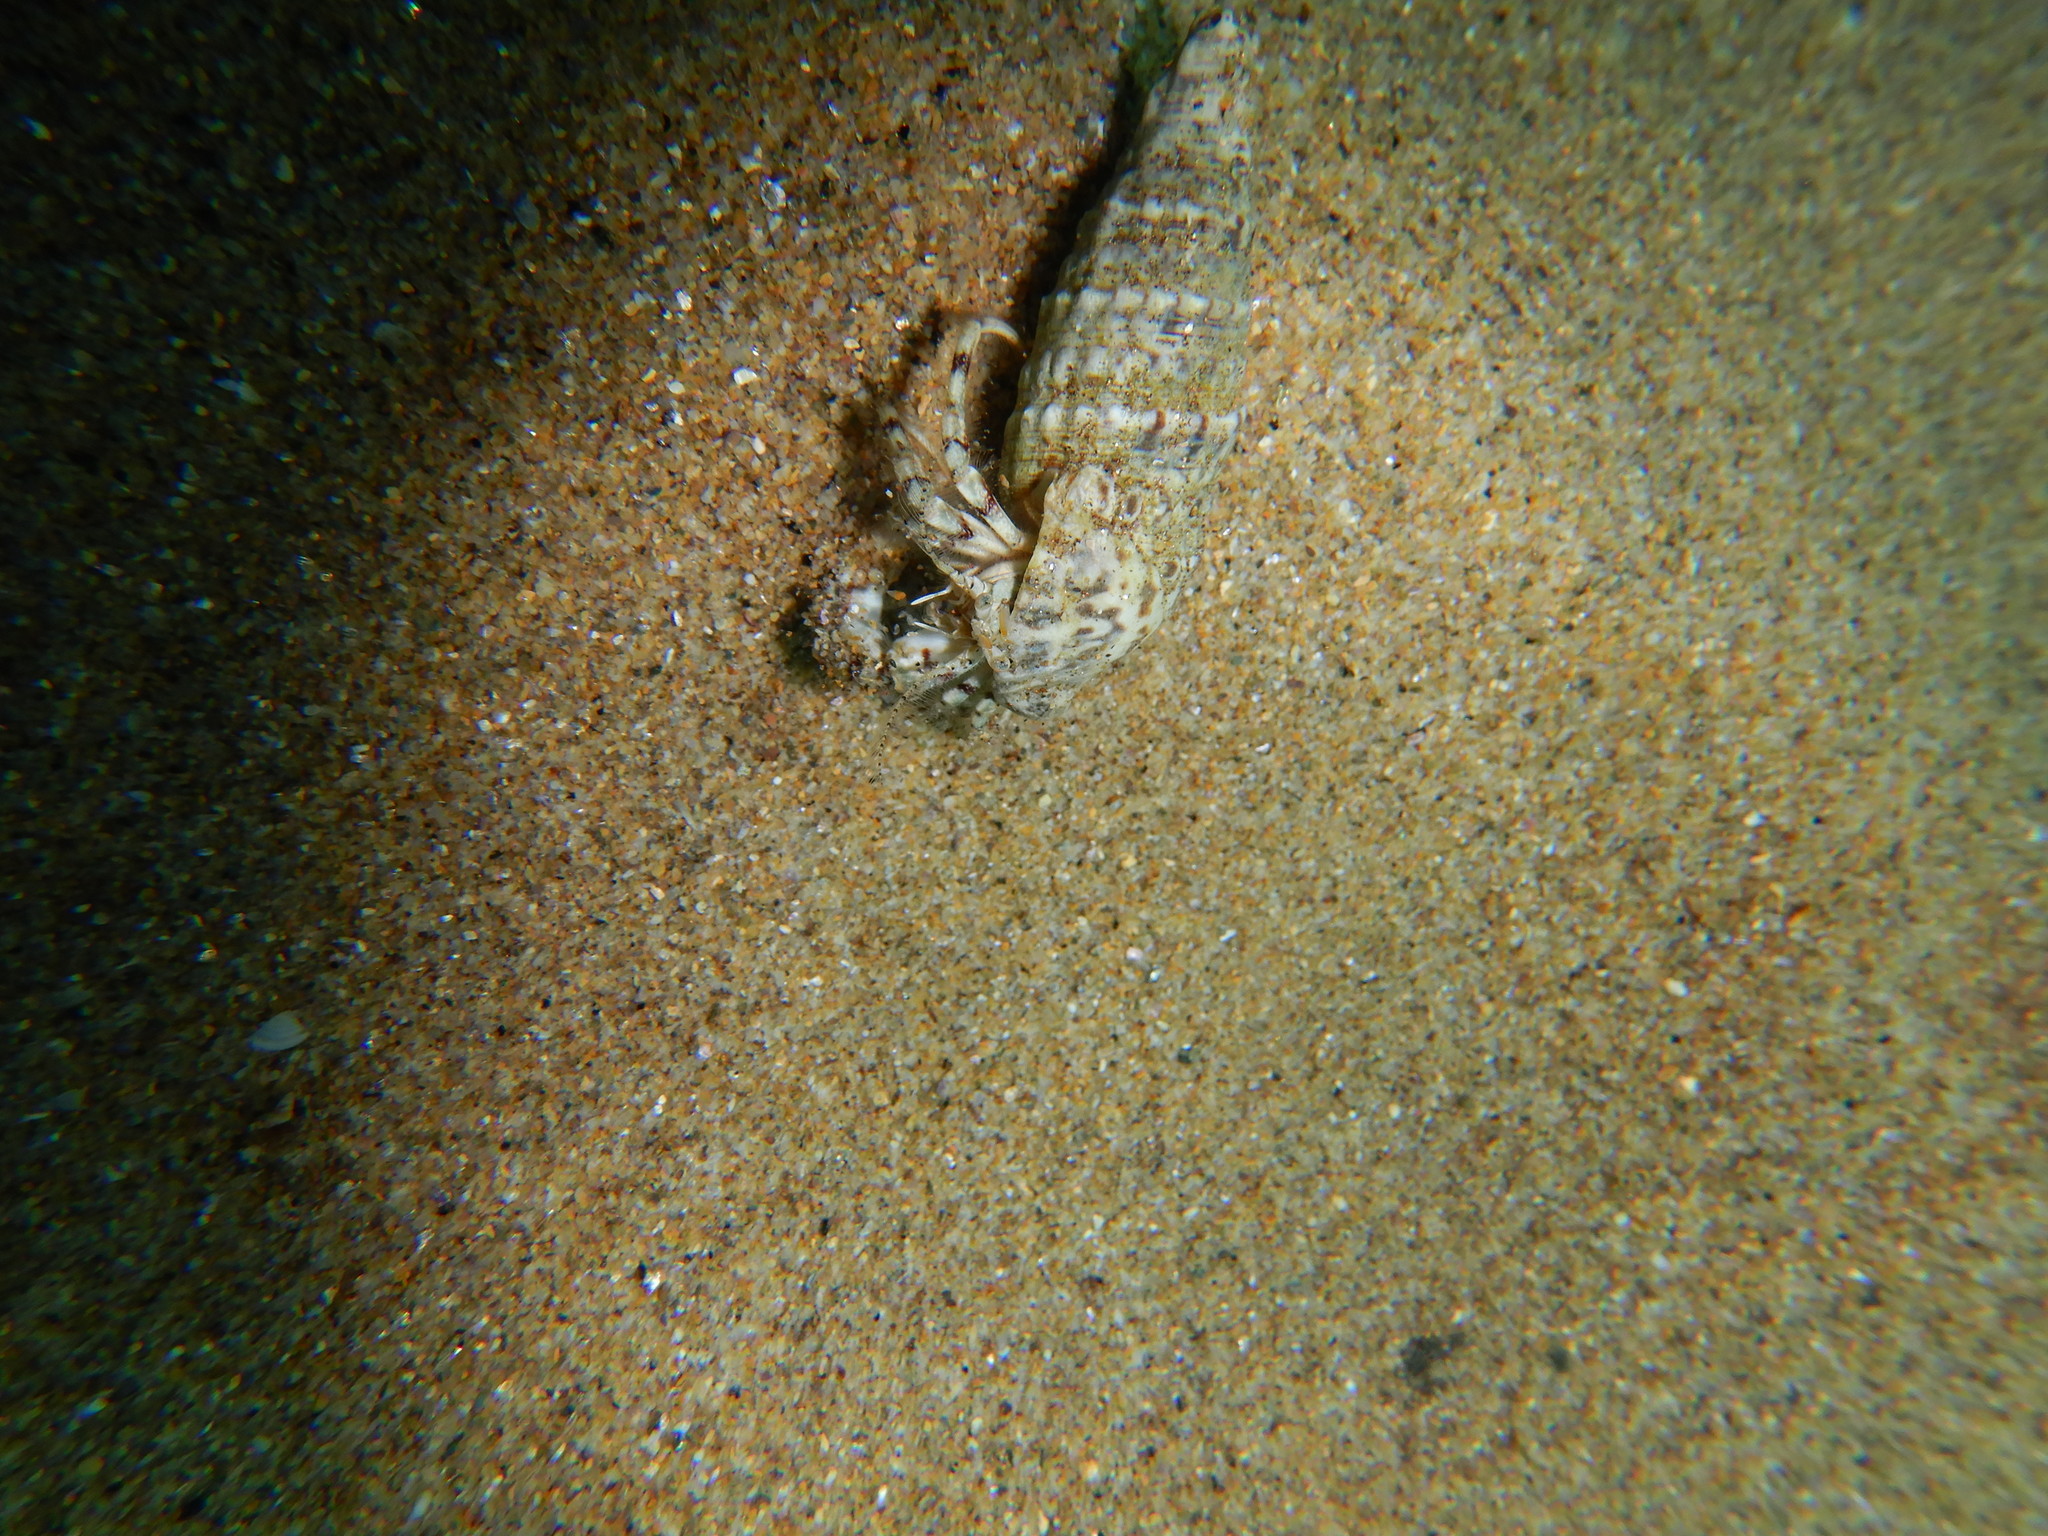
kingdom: Animalia
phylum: Arthropoda
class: Malacostraca
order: Decapoda
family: Diogenidae
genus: Diogenes
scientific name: Diogenes pugilator
